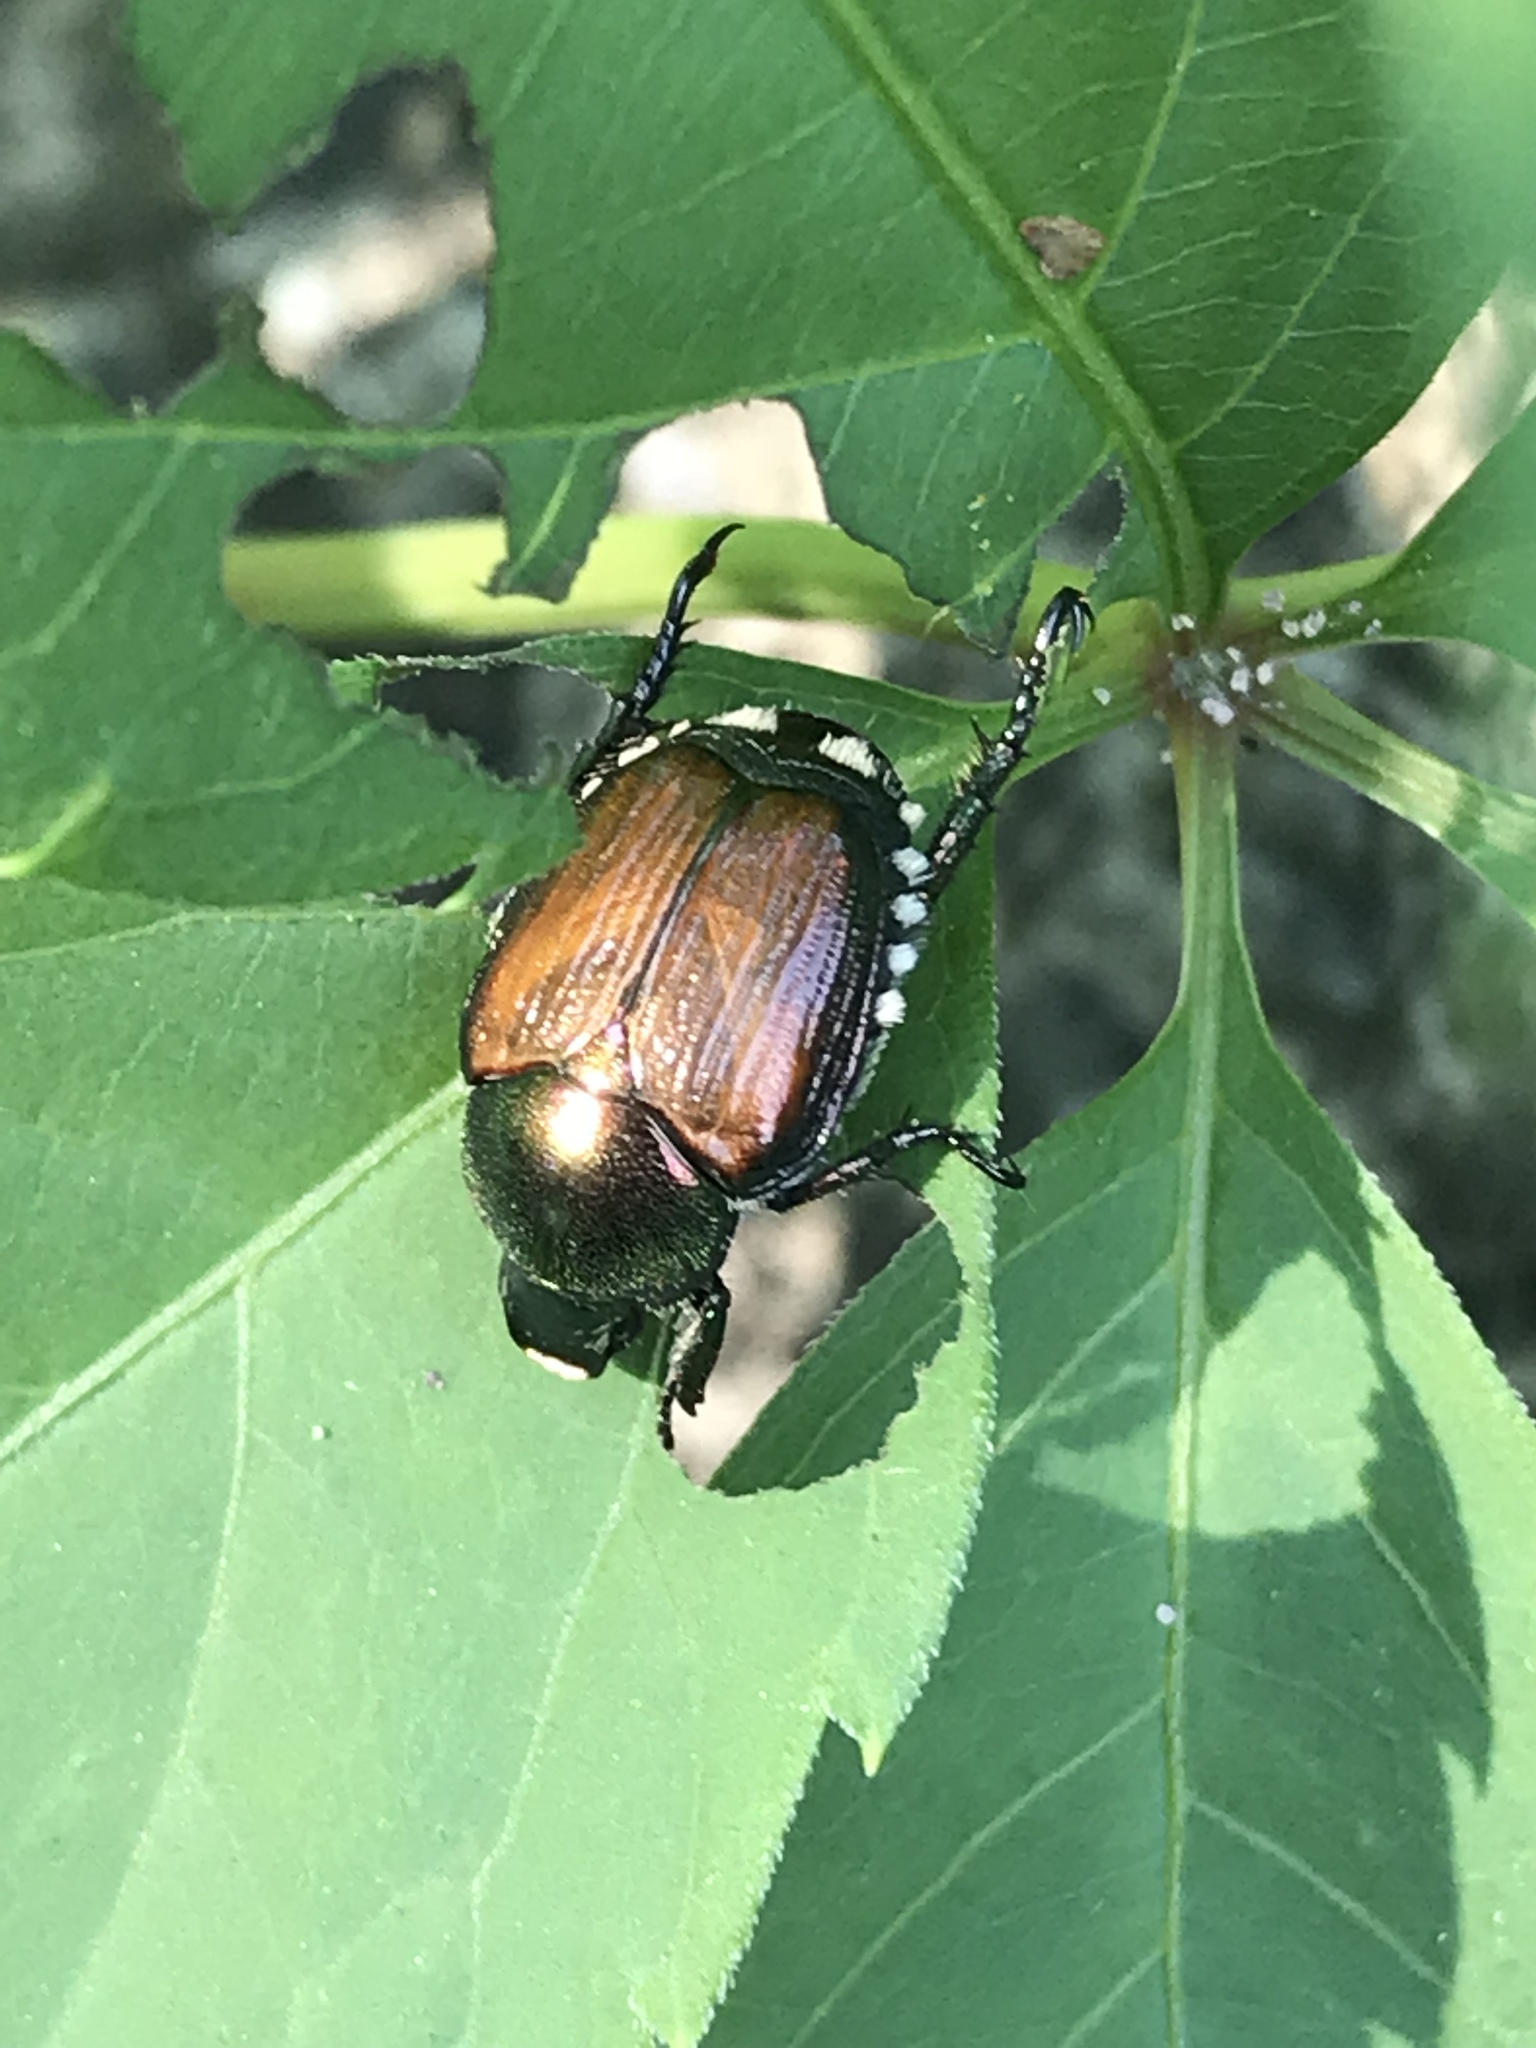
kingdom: Animalia
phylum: Arthropoda
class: Insecta
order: Coleoptera
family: Scarabaeidae
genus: Popillia
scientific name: Popillia japonica
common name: Japanese beetle
